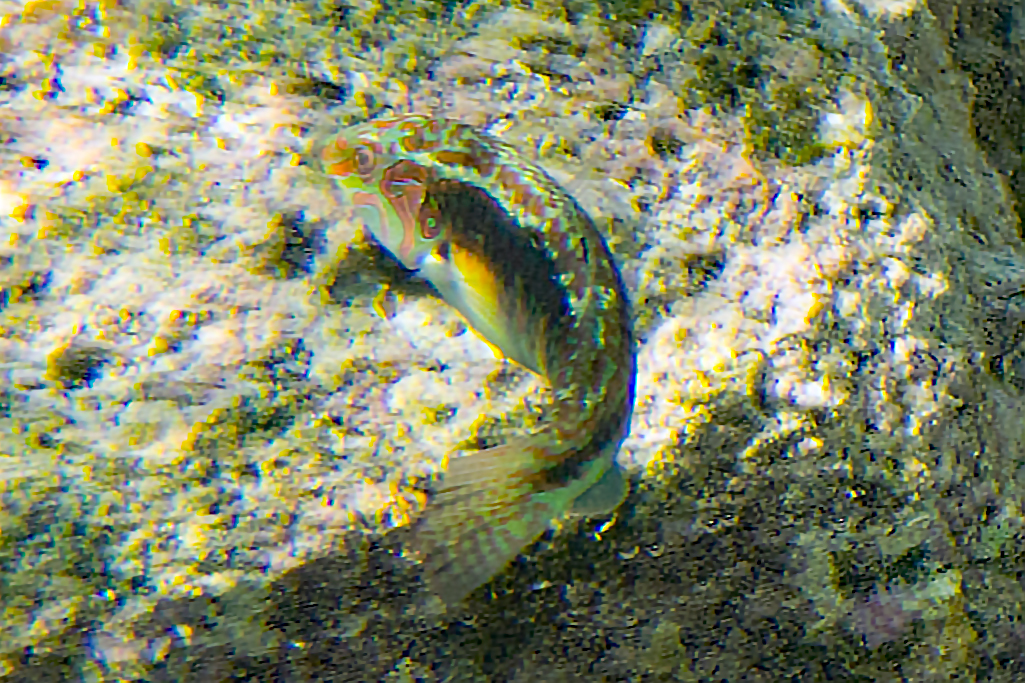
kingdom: Animalia
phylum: Chordata
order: Perciformes
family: Labridae
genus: Halichoeres
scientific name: Halichoeres miniatus
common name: Circle-cheek wrasse
